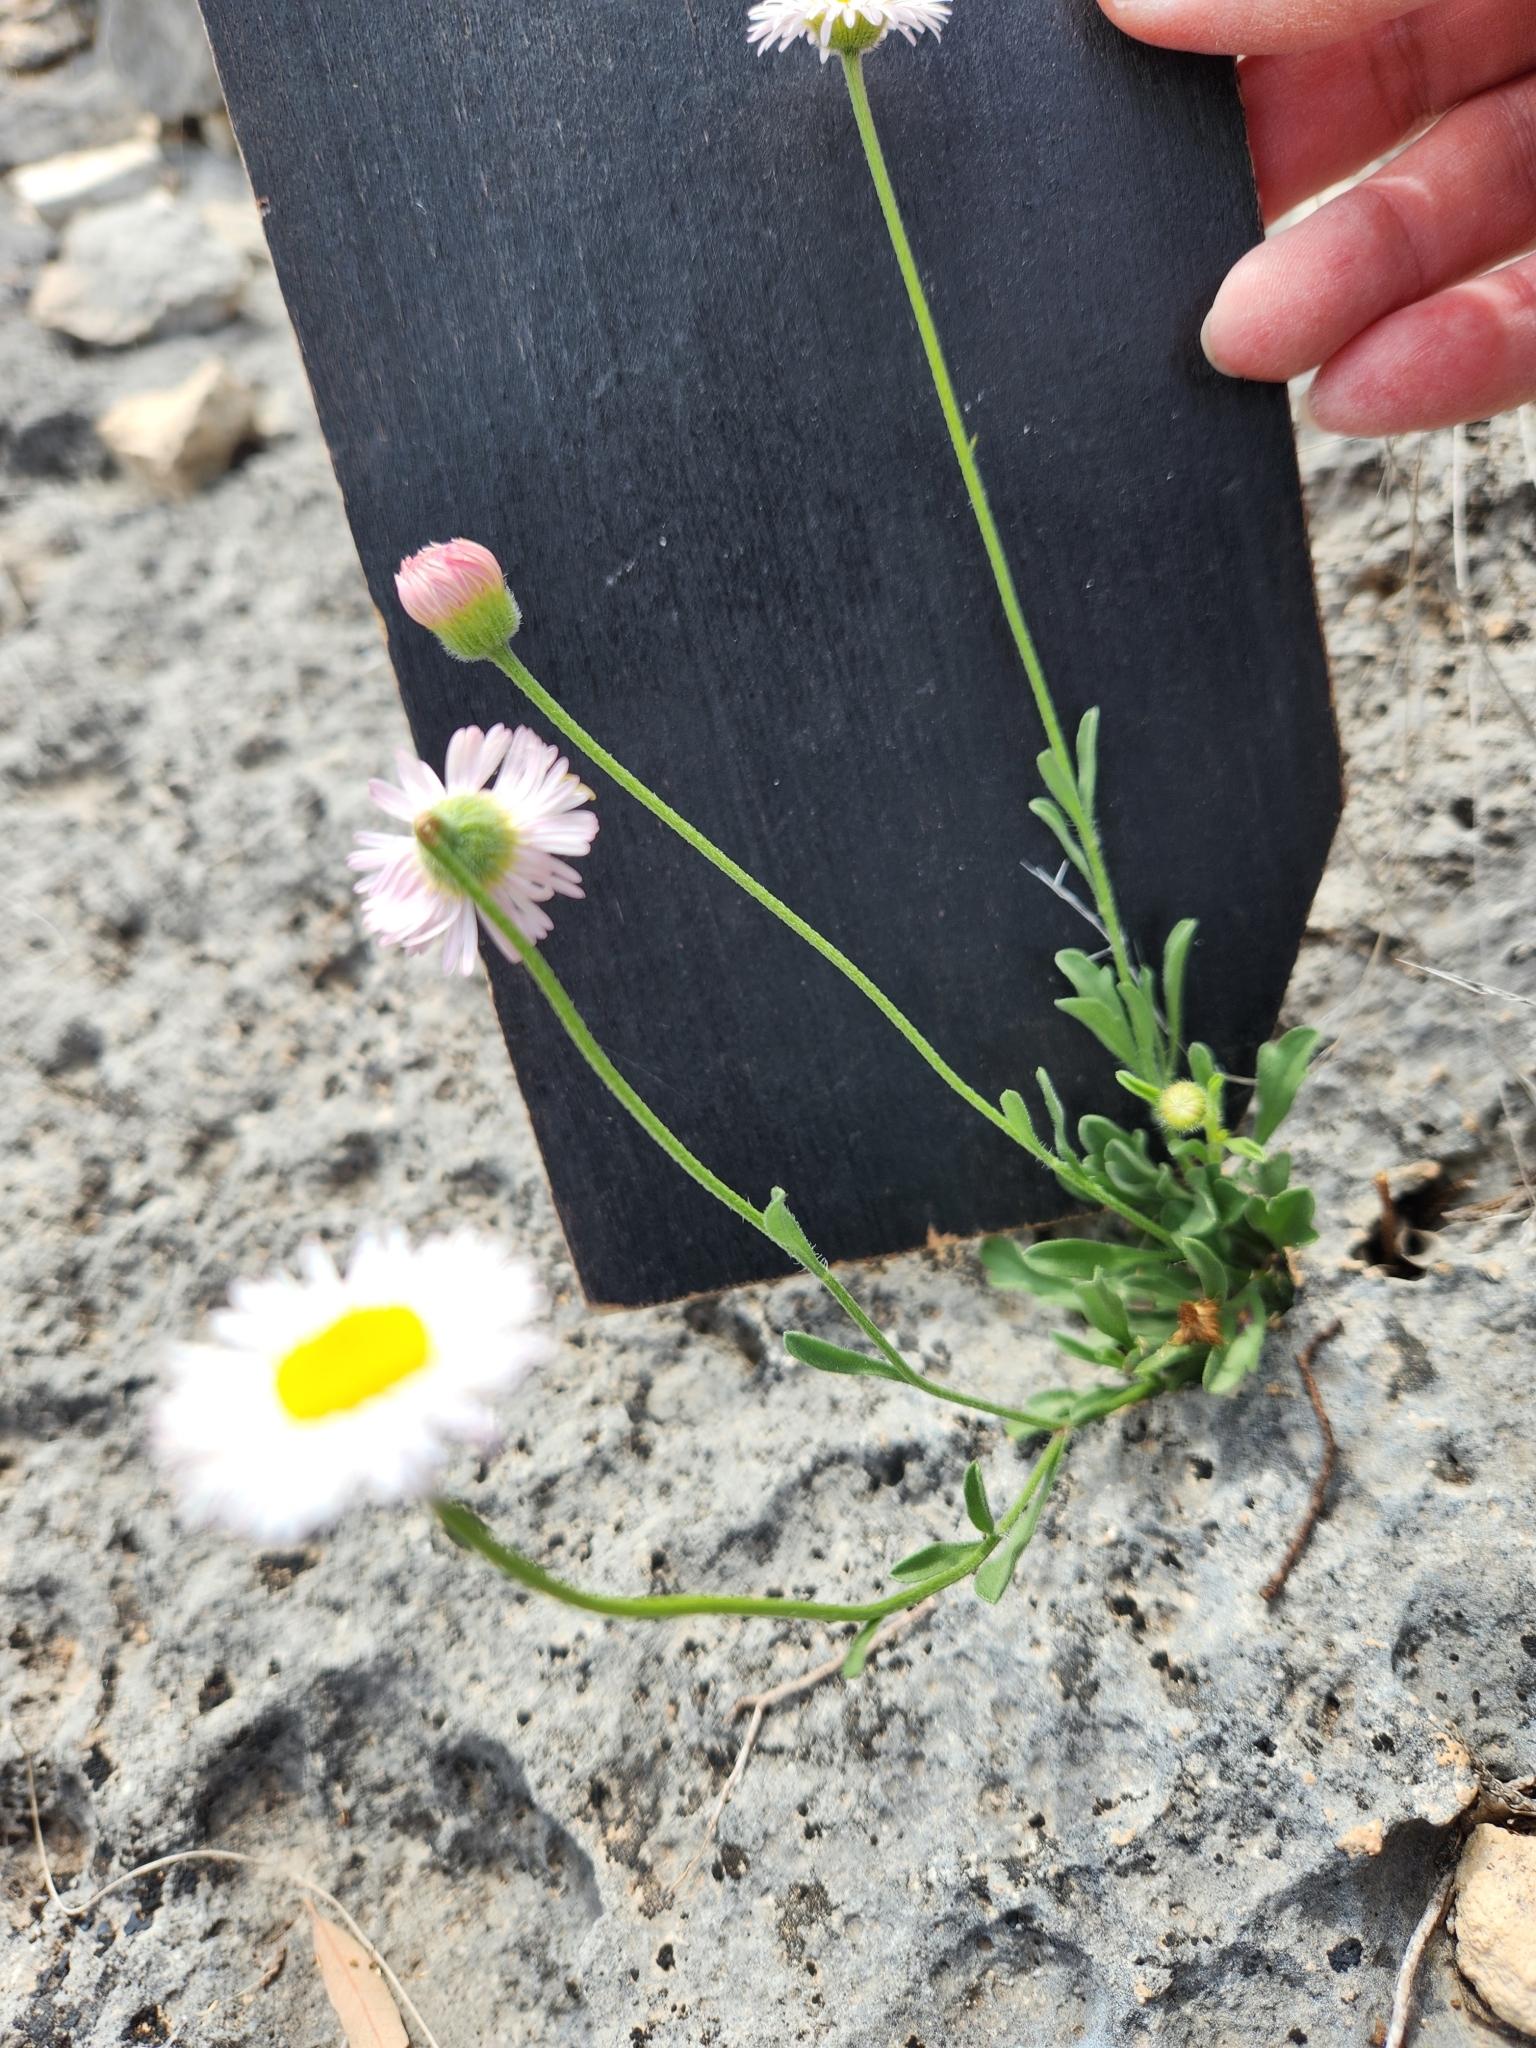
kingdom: Plantae
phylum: Tracheophyta
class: Magnoliopsida
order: Asterales
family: Asteraceae
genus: Erigeron
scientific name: Erigeron modestus
